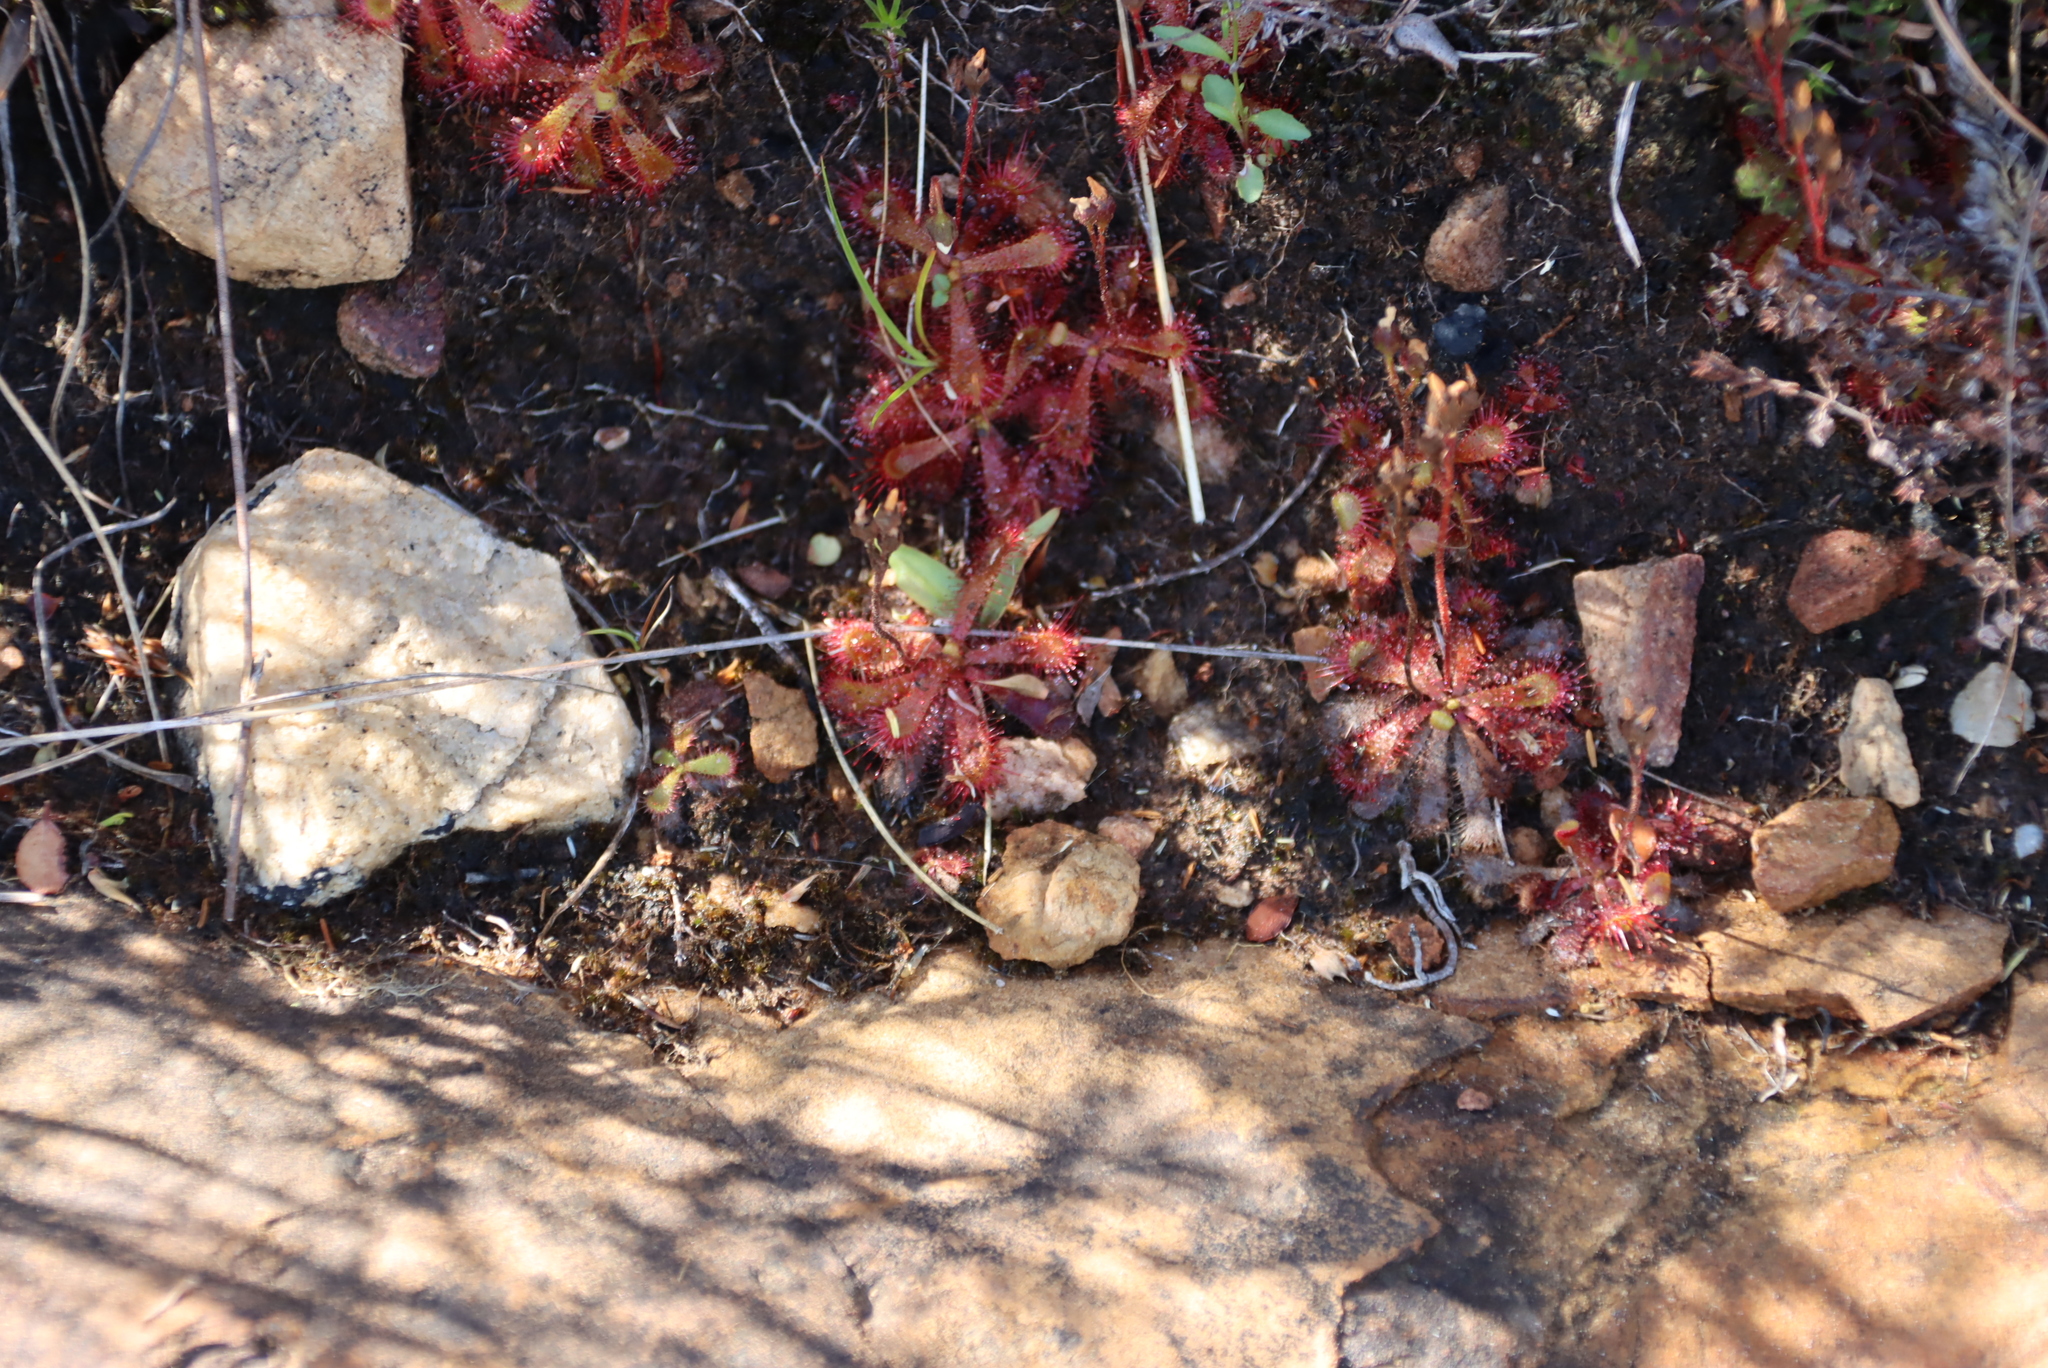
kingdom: Plantae
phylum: Tracheophyta
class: Magnoliopsida
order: Caryophyllales
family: Droseraceae
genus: Drosera
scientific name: Drosera trinervia
